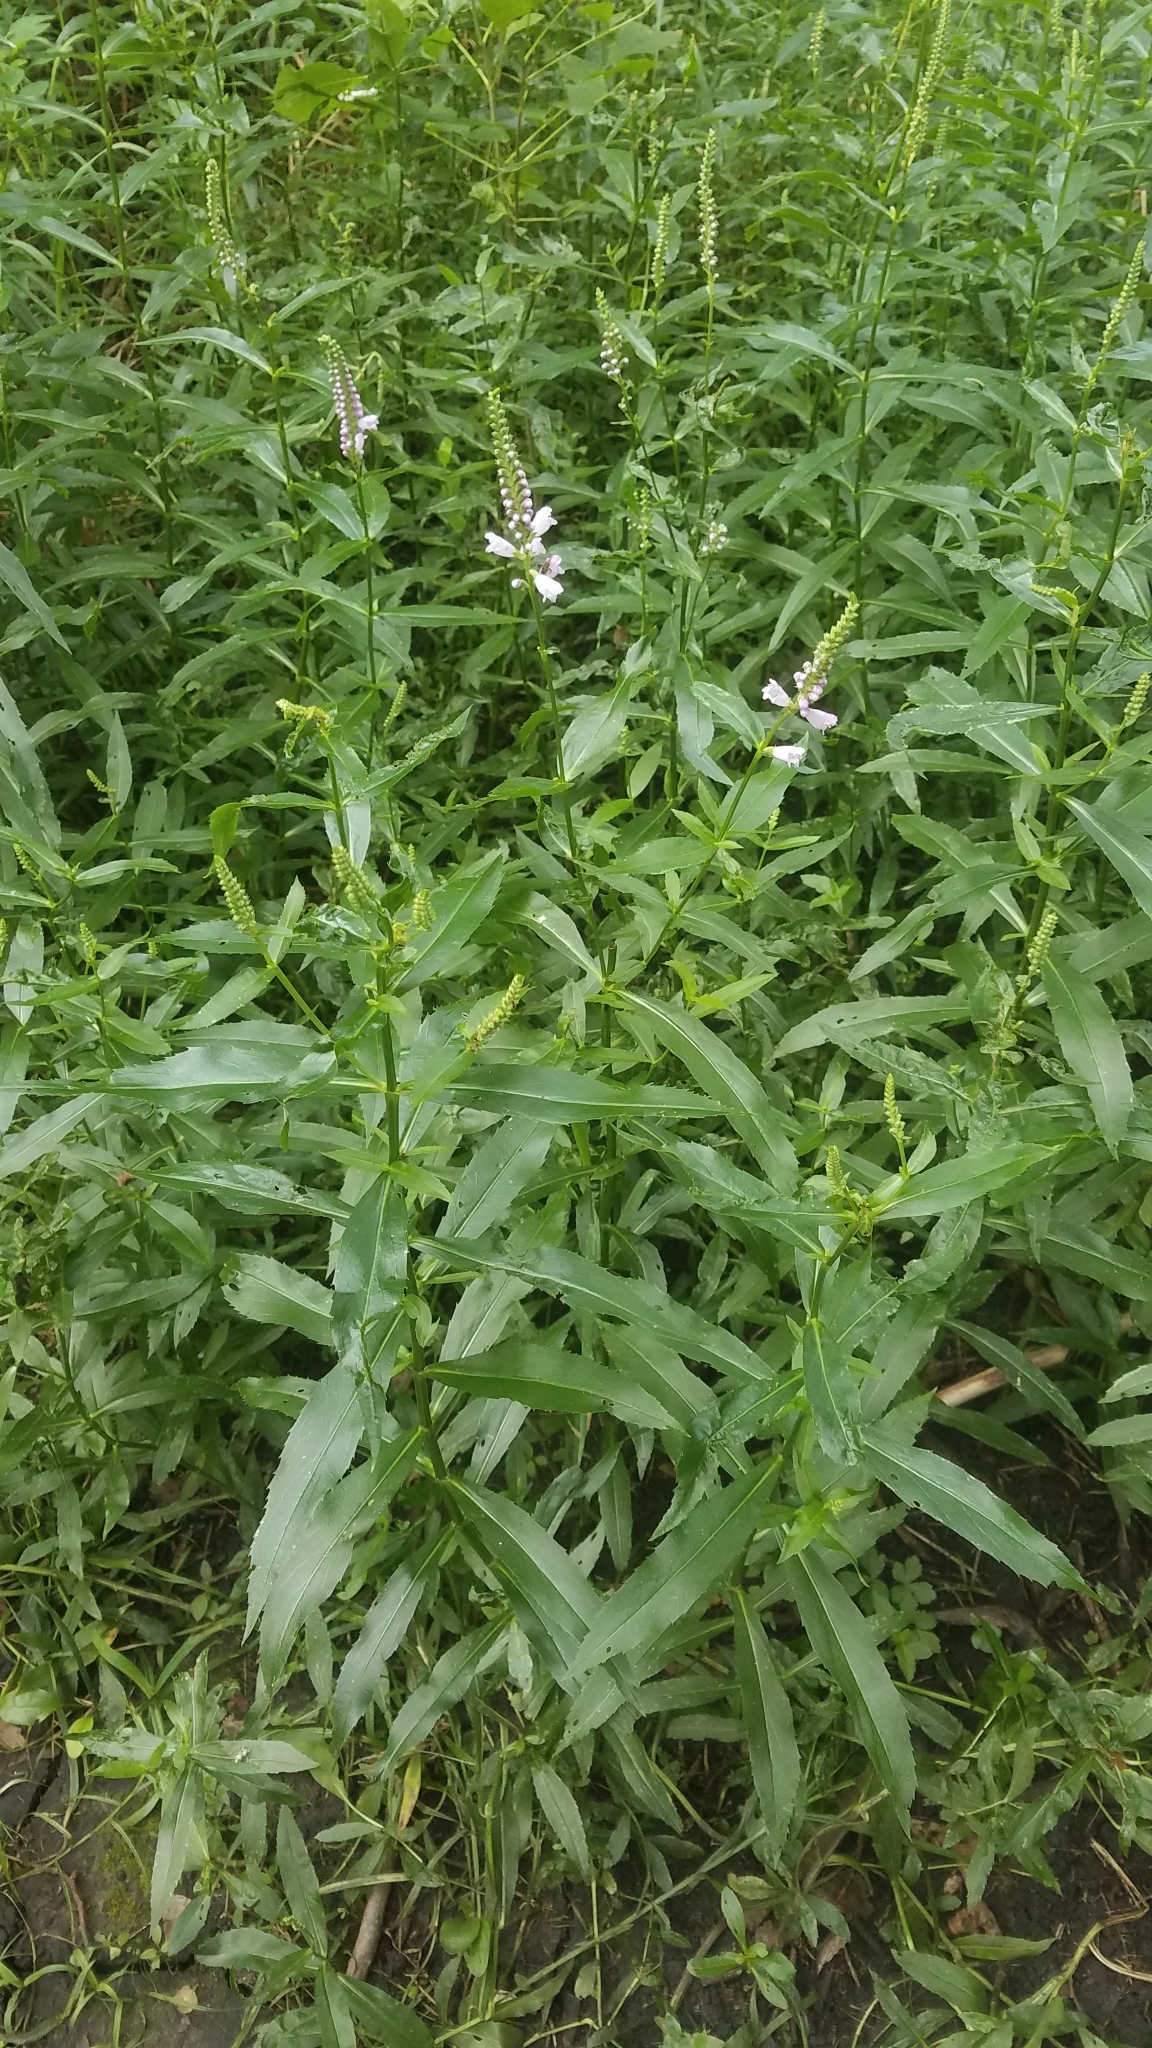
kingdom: Plantae
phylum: Tracheophyta
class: Magnoliopsida
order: Lamiales
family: Lamiaceae
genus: Physostegia
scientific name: Physostegia virginiana
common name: Obedient-plant
